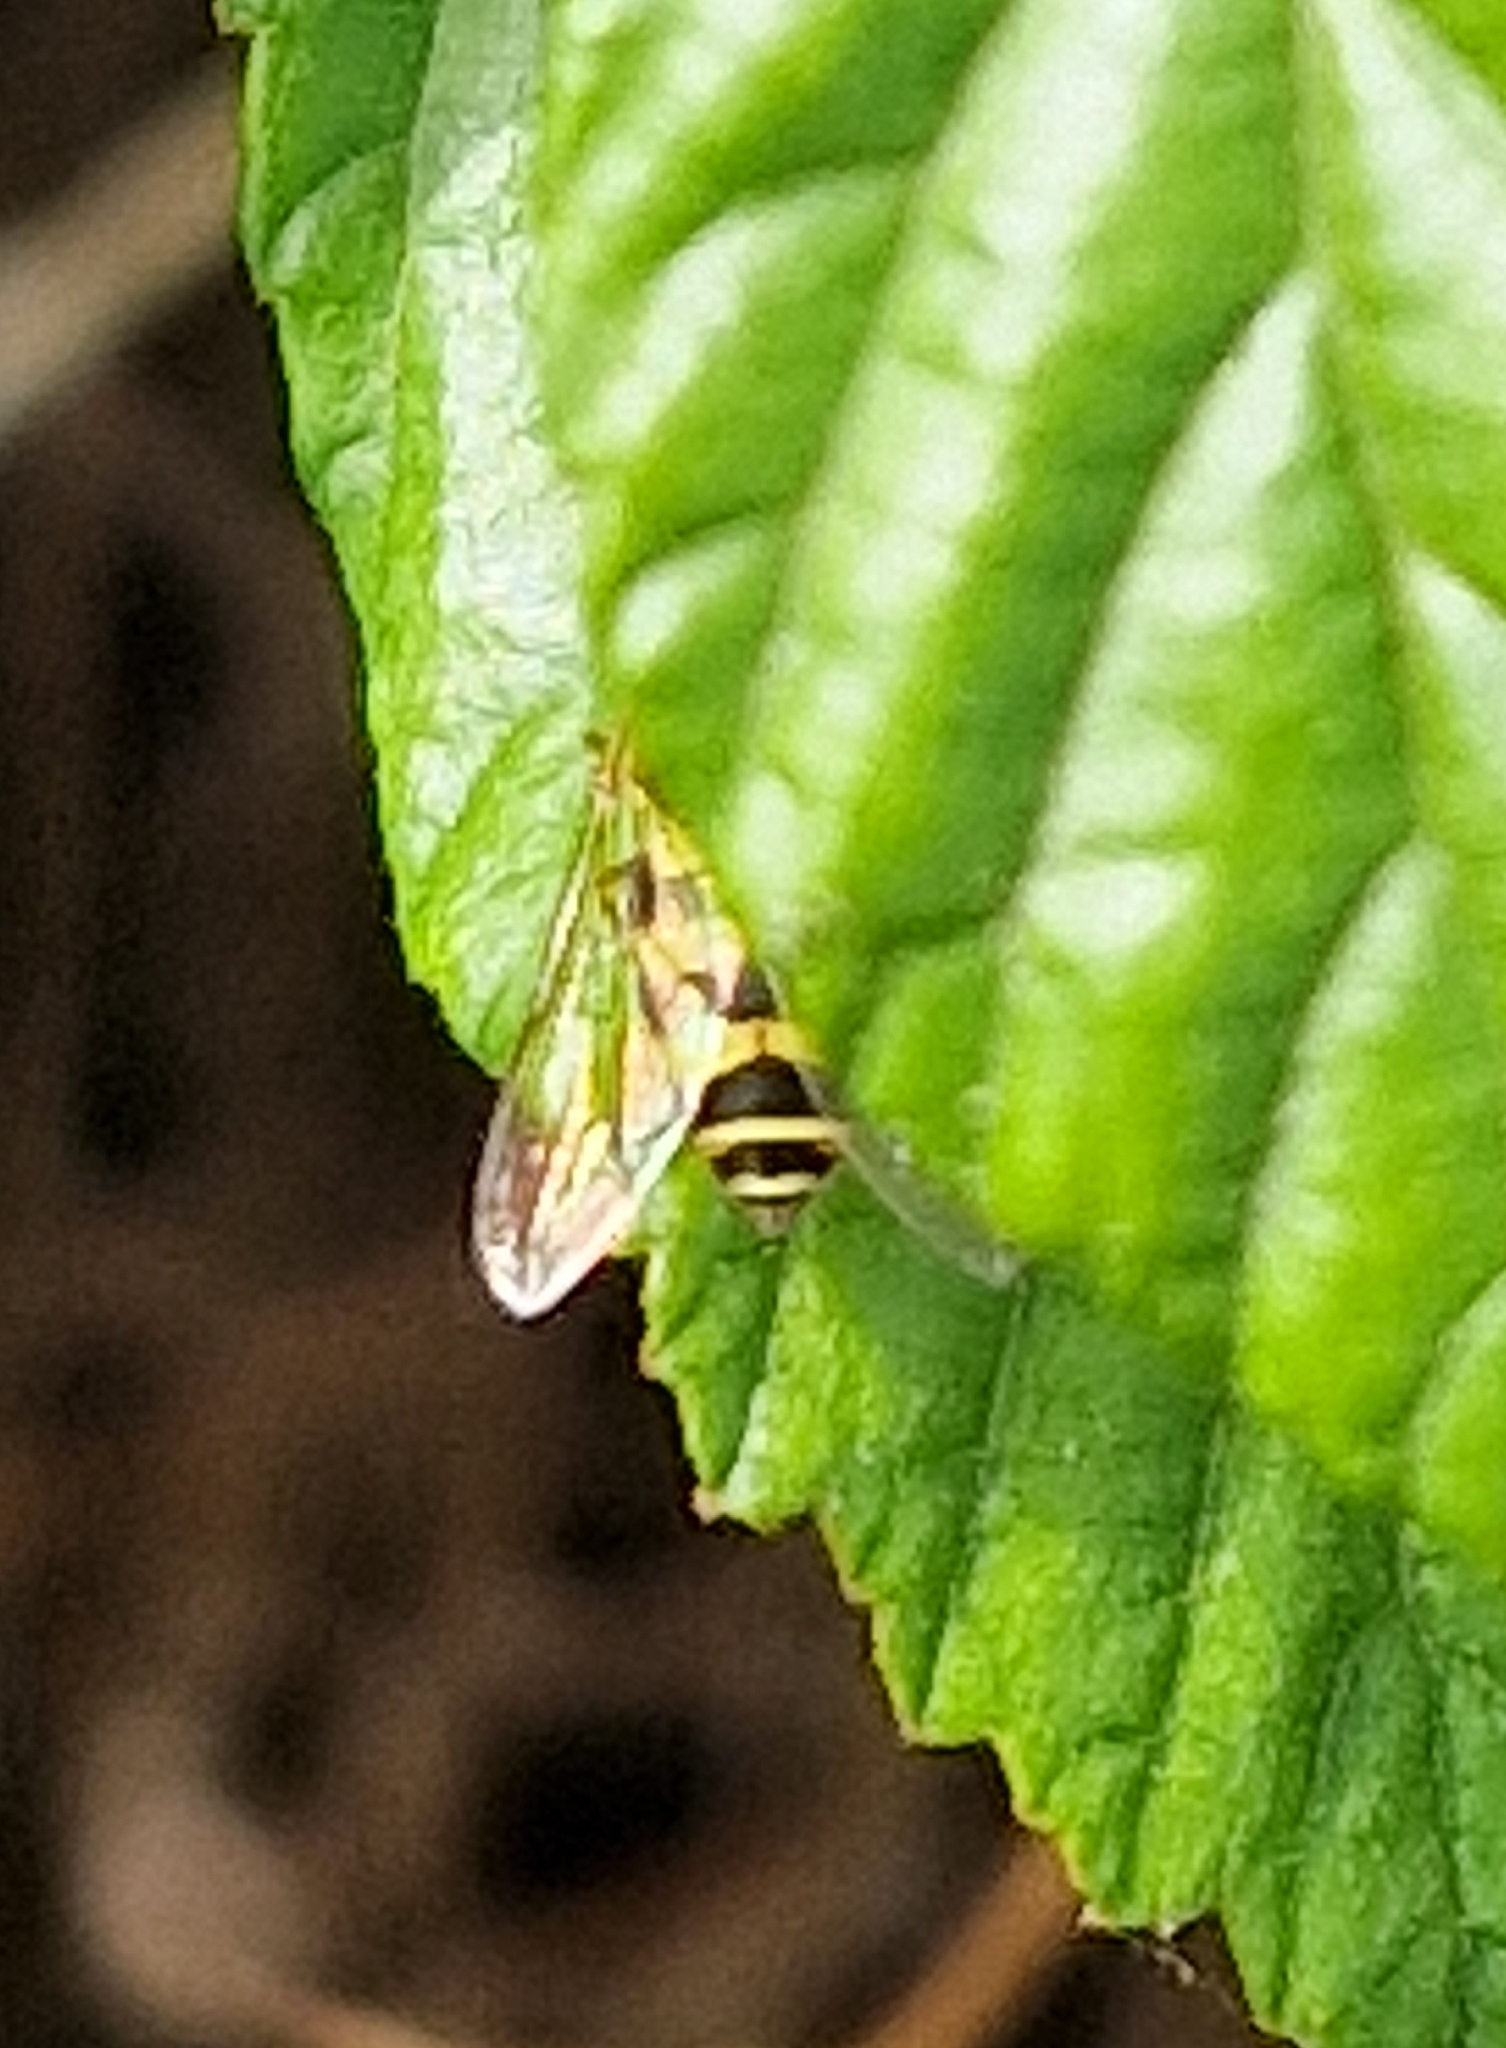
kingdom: Animalia
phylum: Arthropoda
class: Insecta
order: Diptera
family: Syrphidae
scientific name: Syrphidae
